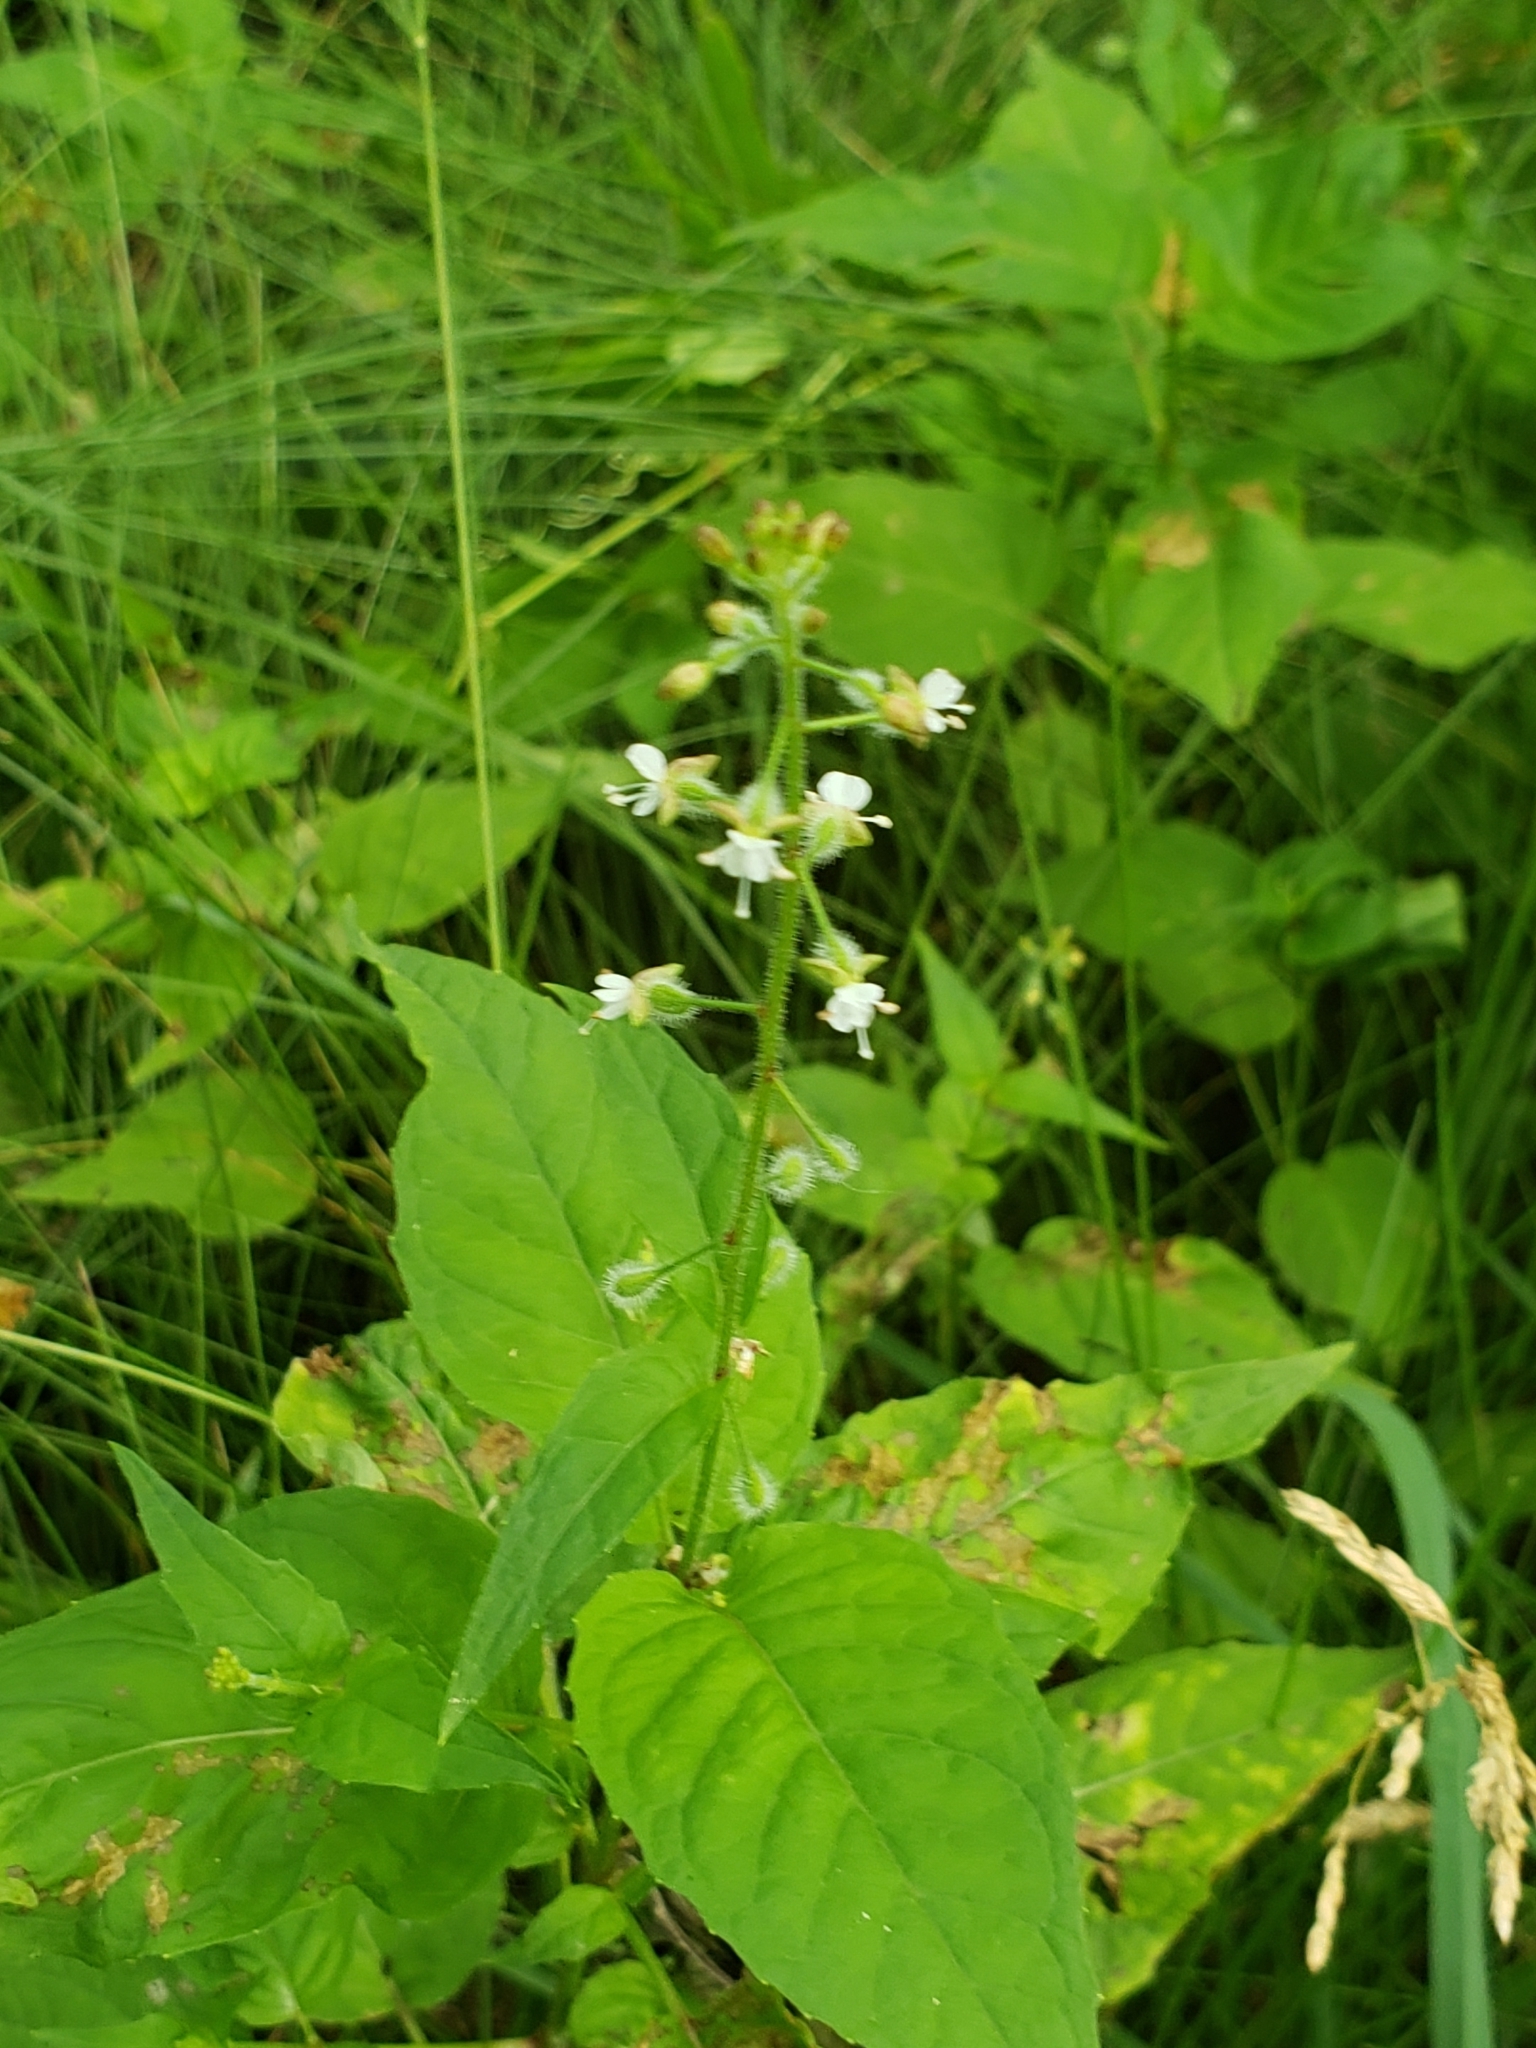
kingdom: Plantae
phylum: Tracheophyta
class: Magnoliopsida
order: Myrtales
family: Onagraceae
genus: Circaea
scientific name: Circaea canadensis
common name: Broad-leaved enchanter's nightshade
